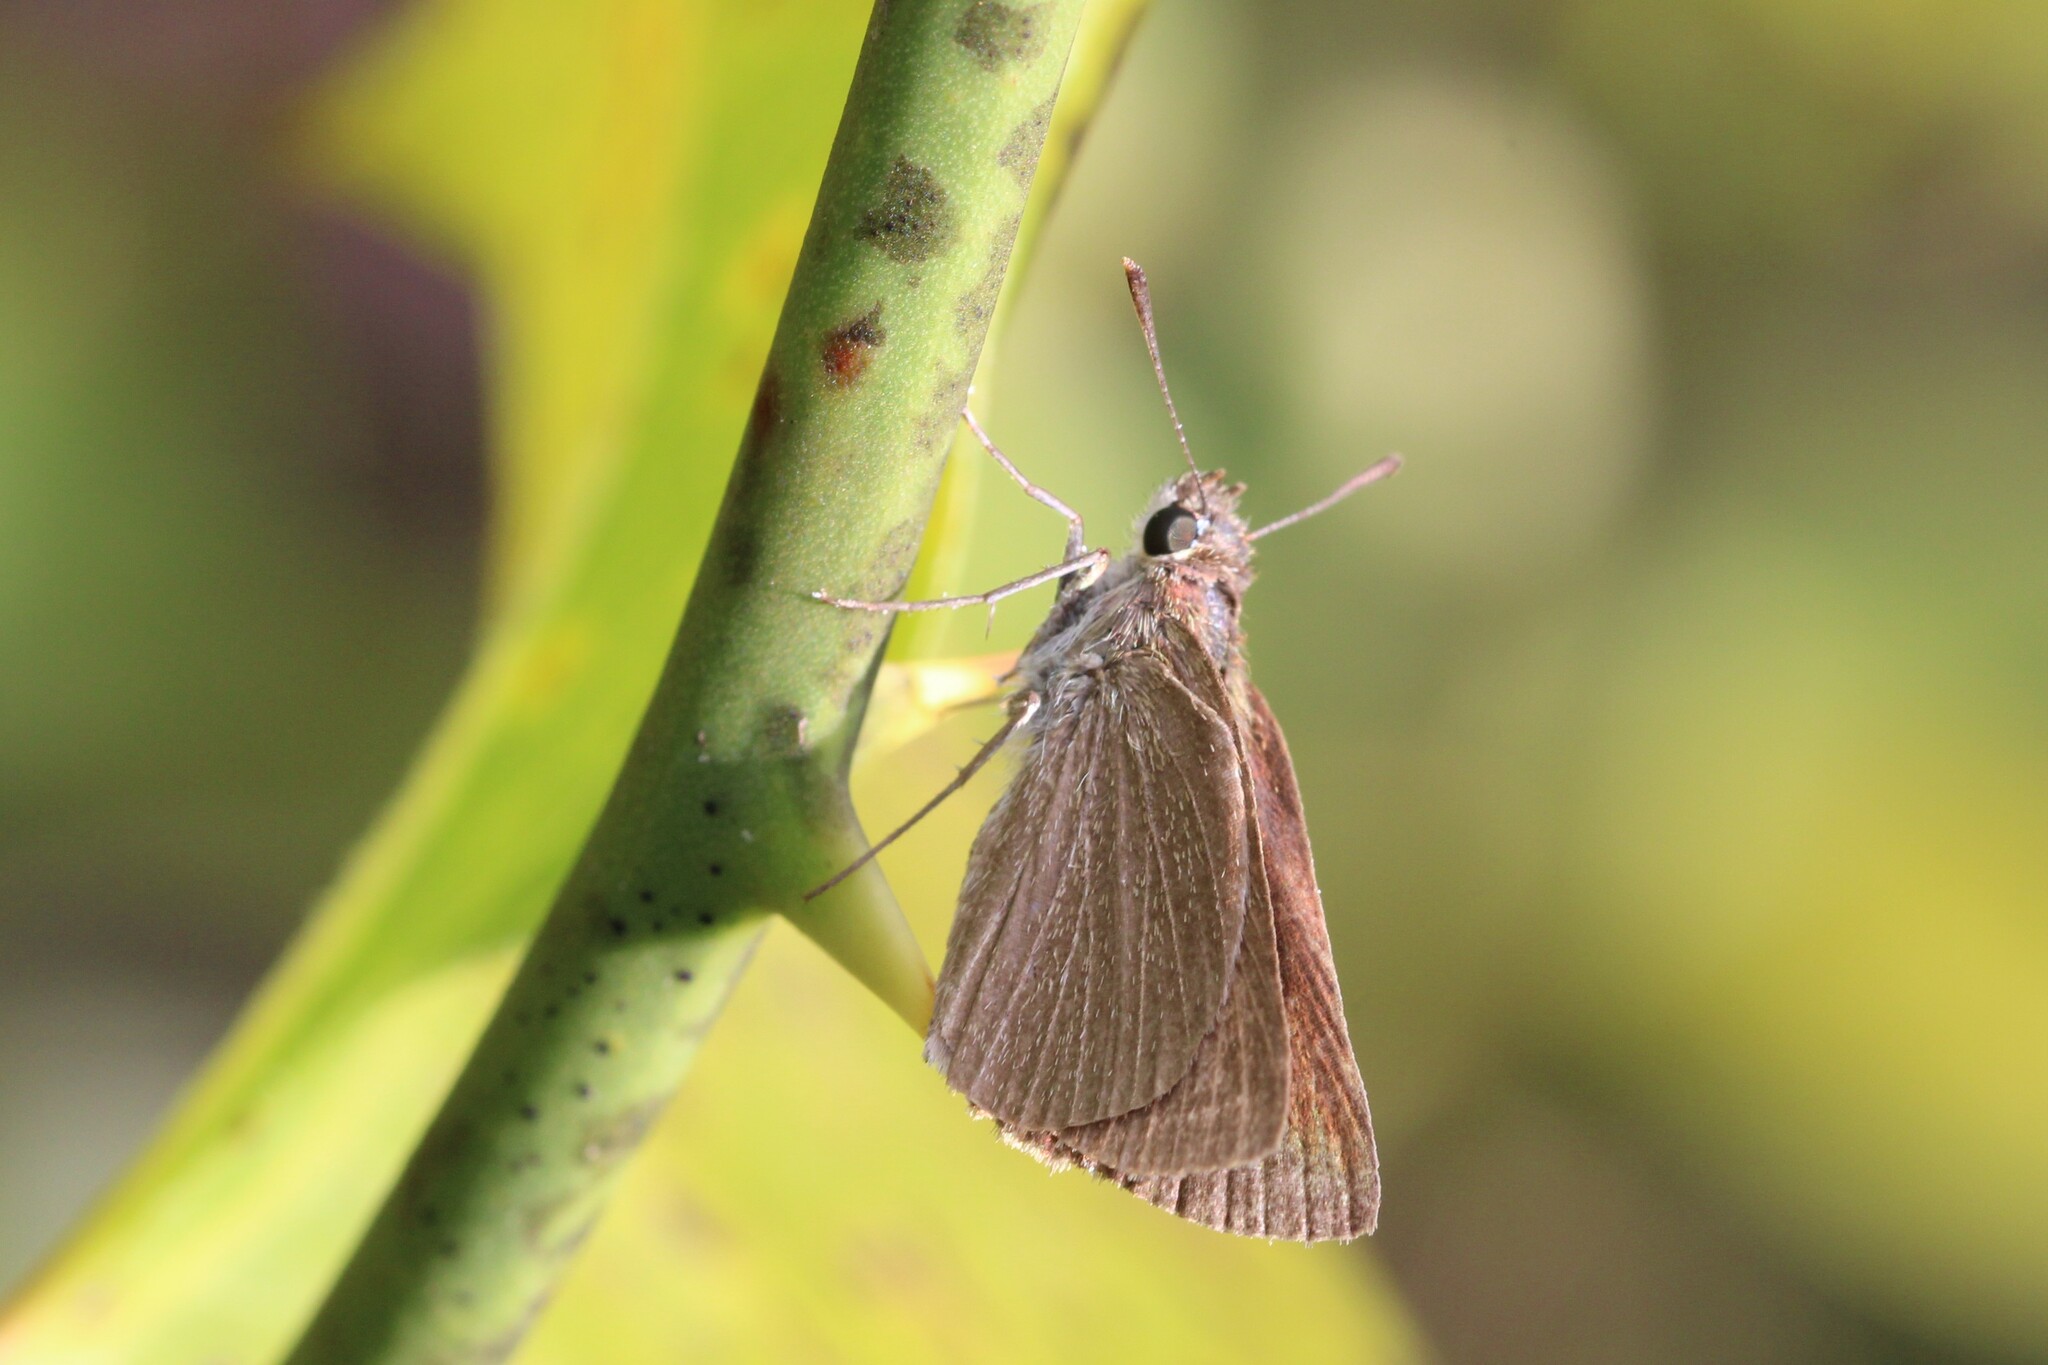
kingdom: Animalia
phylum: Arthropoda
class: Insecta
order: Lepidoptera
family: Hesperiidae
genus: Nastra
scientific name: Nastra lherminier
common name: Swarthy skipper
